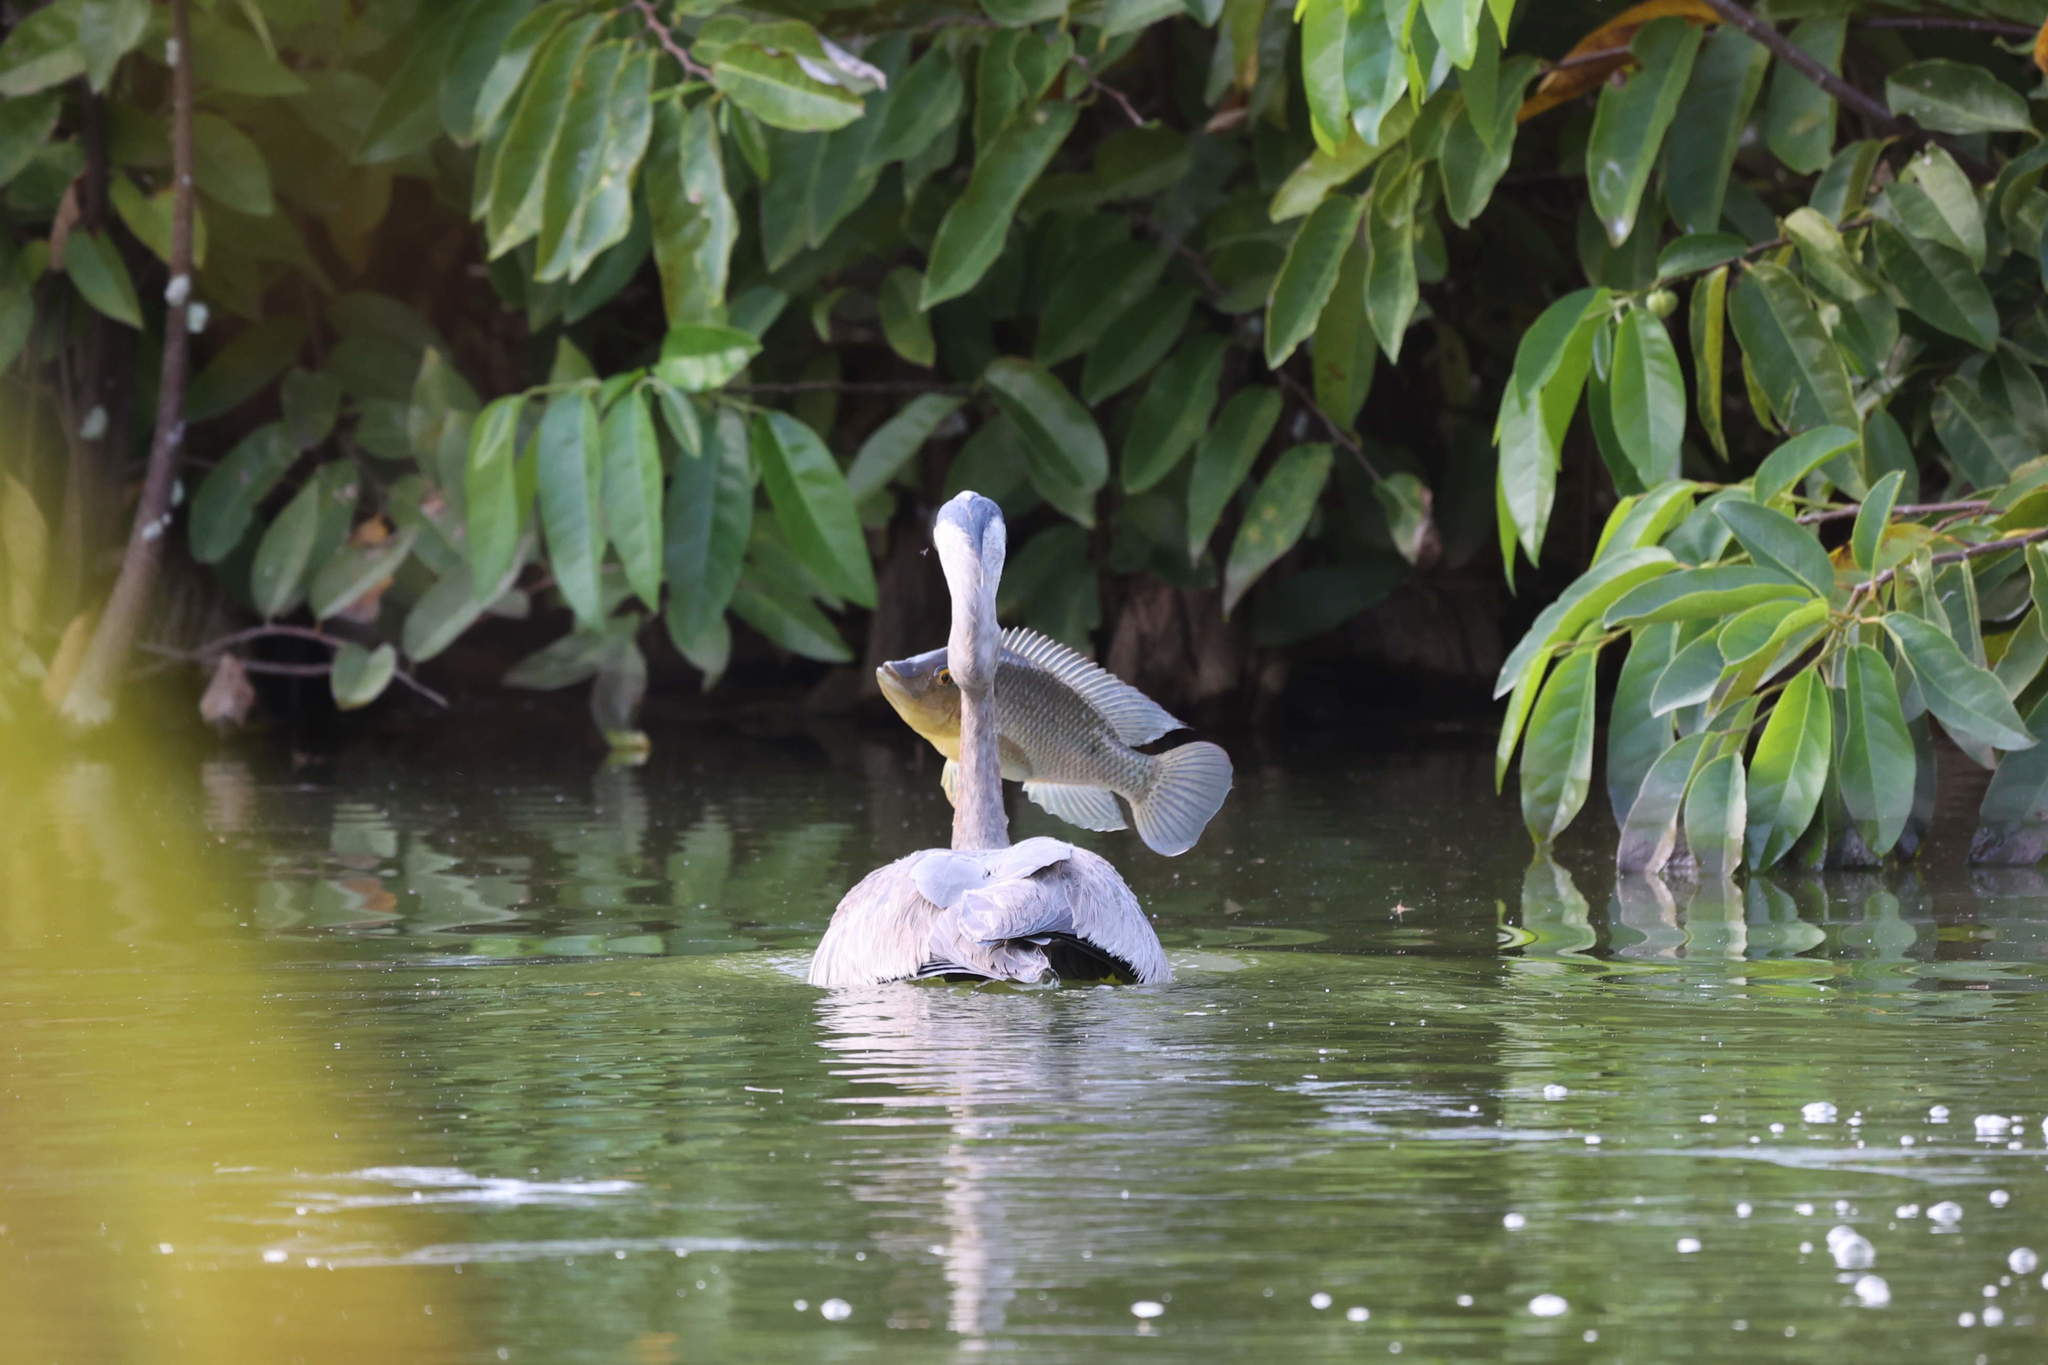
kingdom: Animalia
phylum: Chordata
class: Aves
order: Pelecaniformes
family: Ardeidae
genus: Ardea
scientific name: Ardea herodias
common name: Great blue heron
